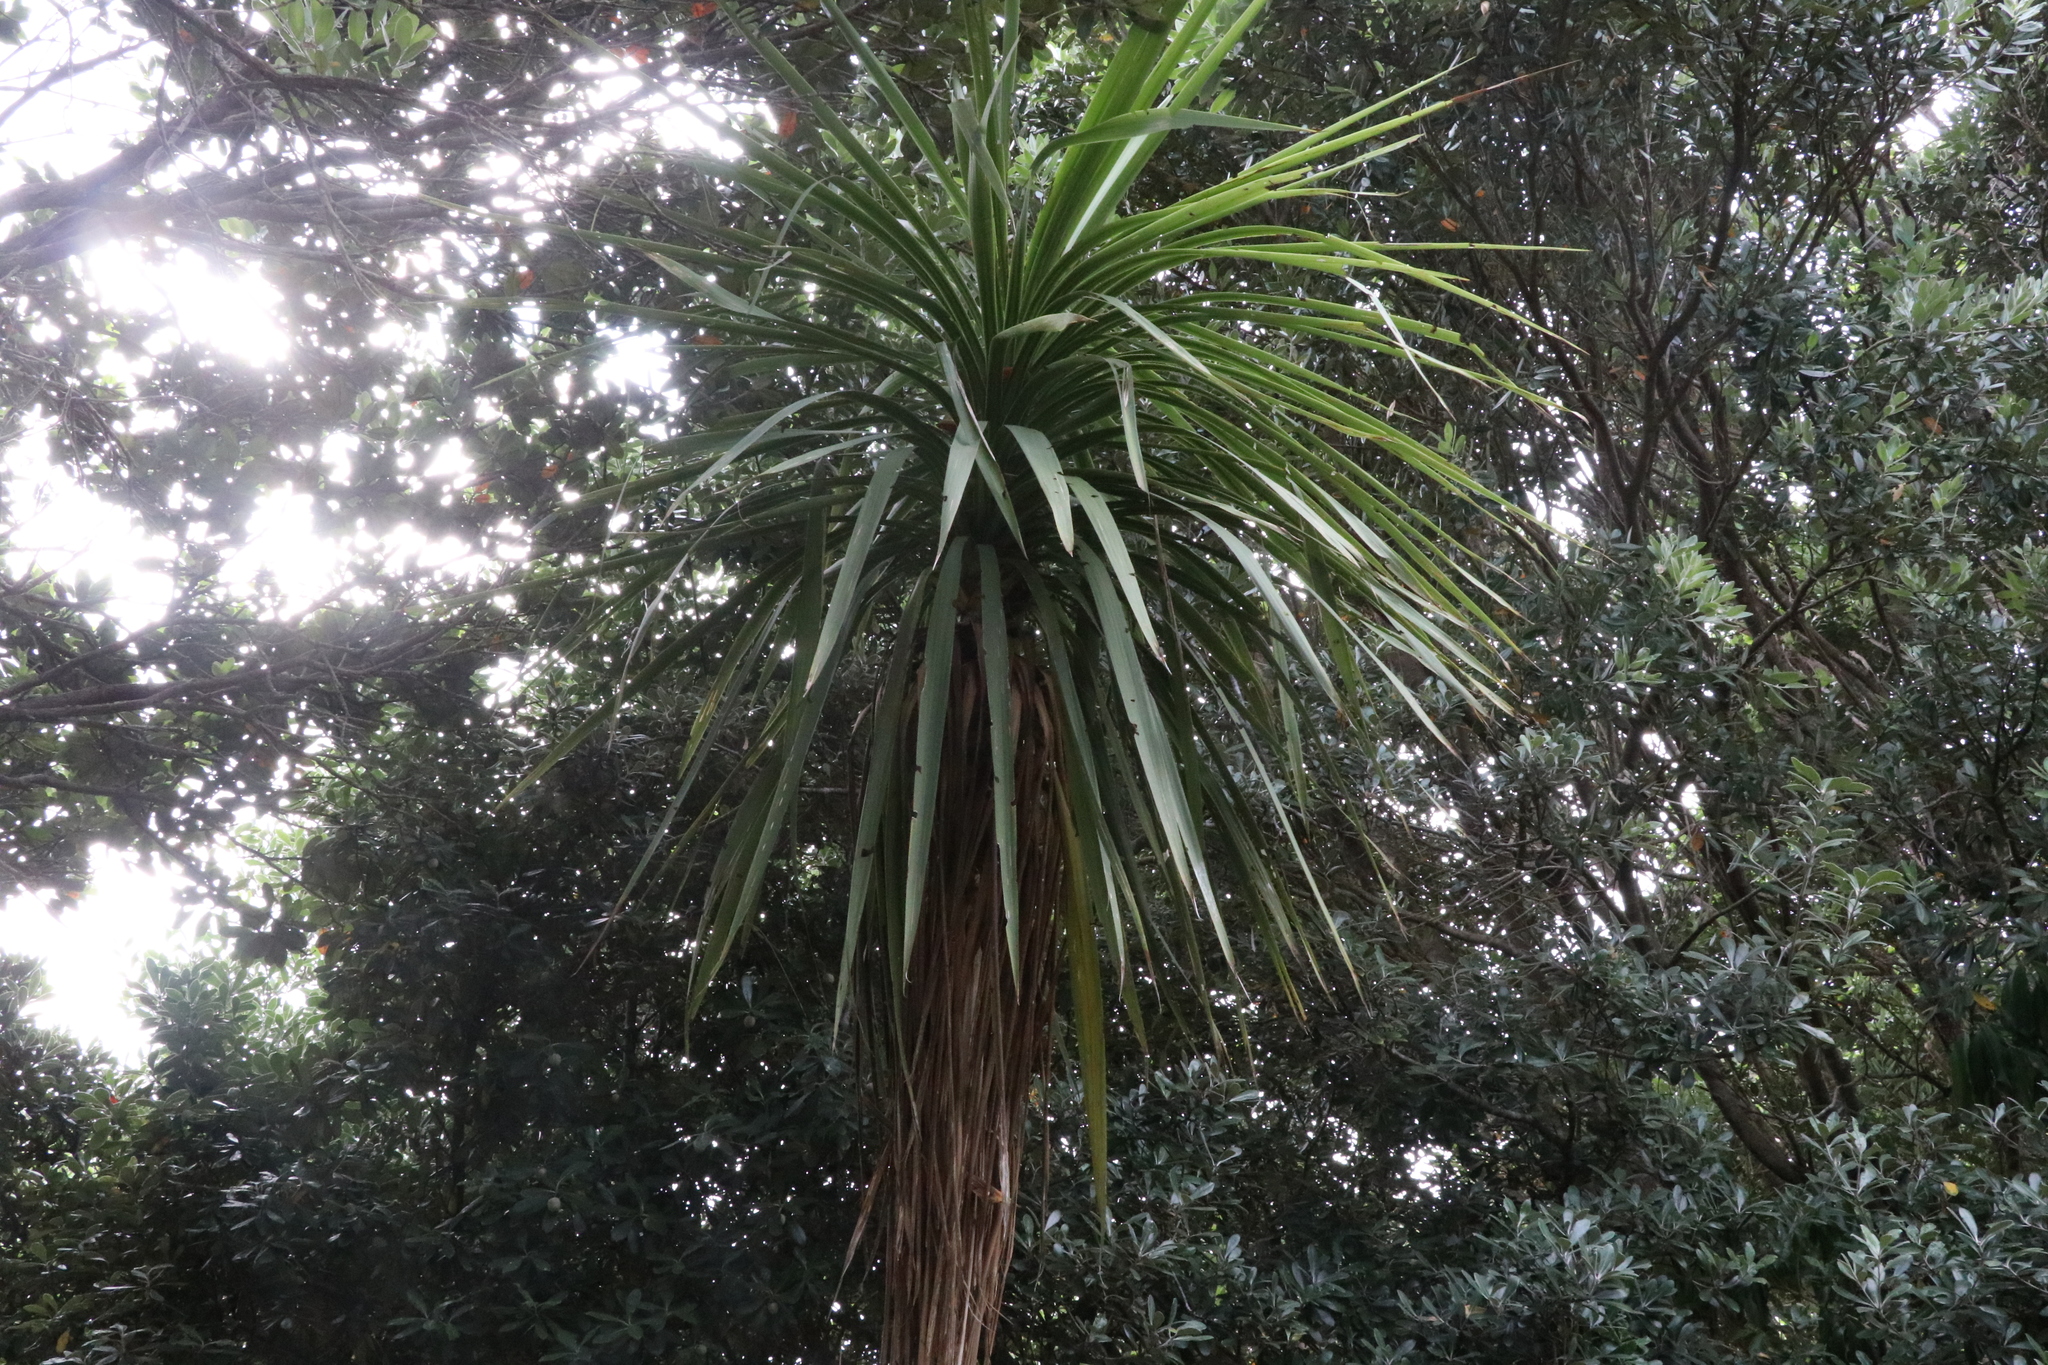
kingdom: Plantae
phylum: Tracheophyta
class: Liliopsida
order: Asparagales
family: Asparagaceae
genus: Cordyline
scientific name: Cordyline australis
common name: Cabbage-palm
